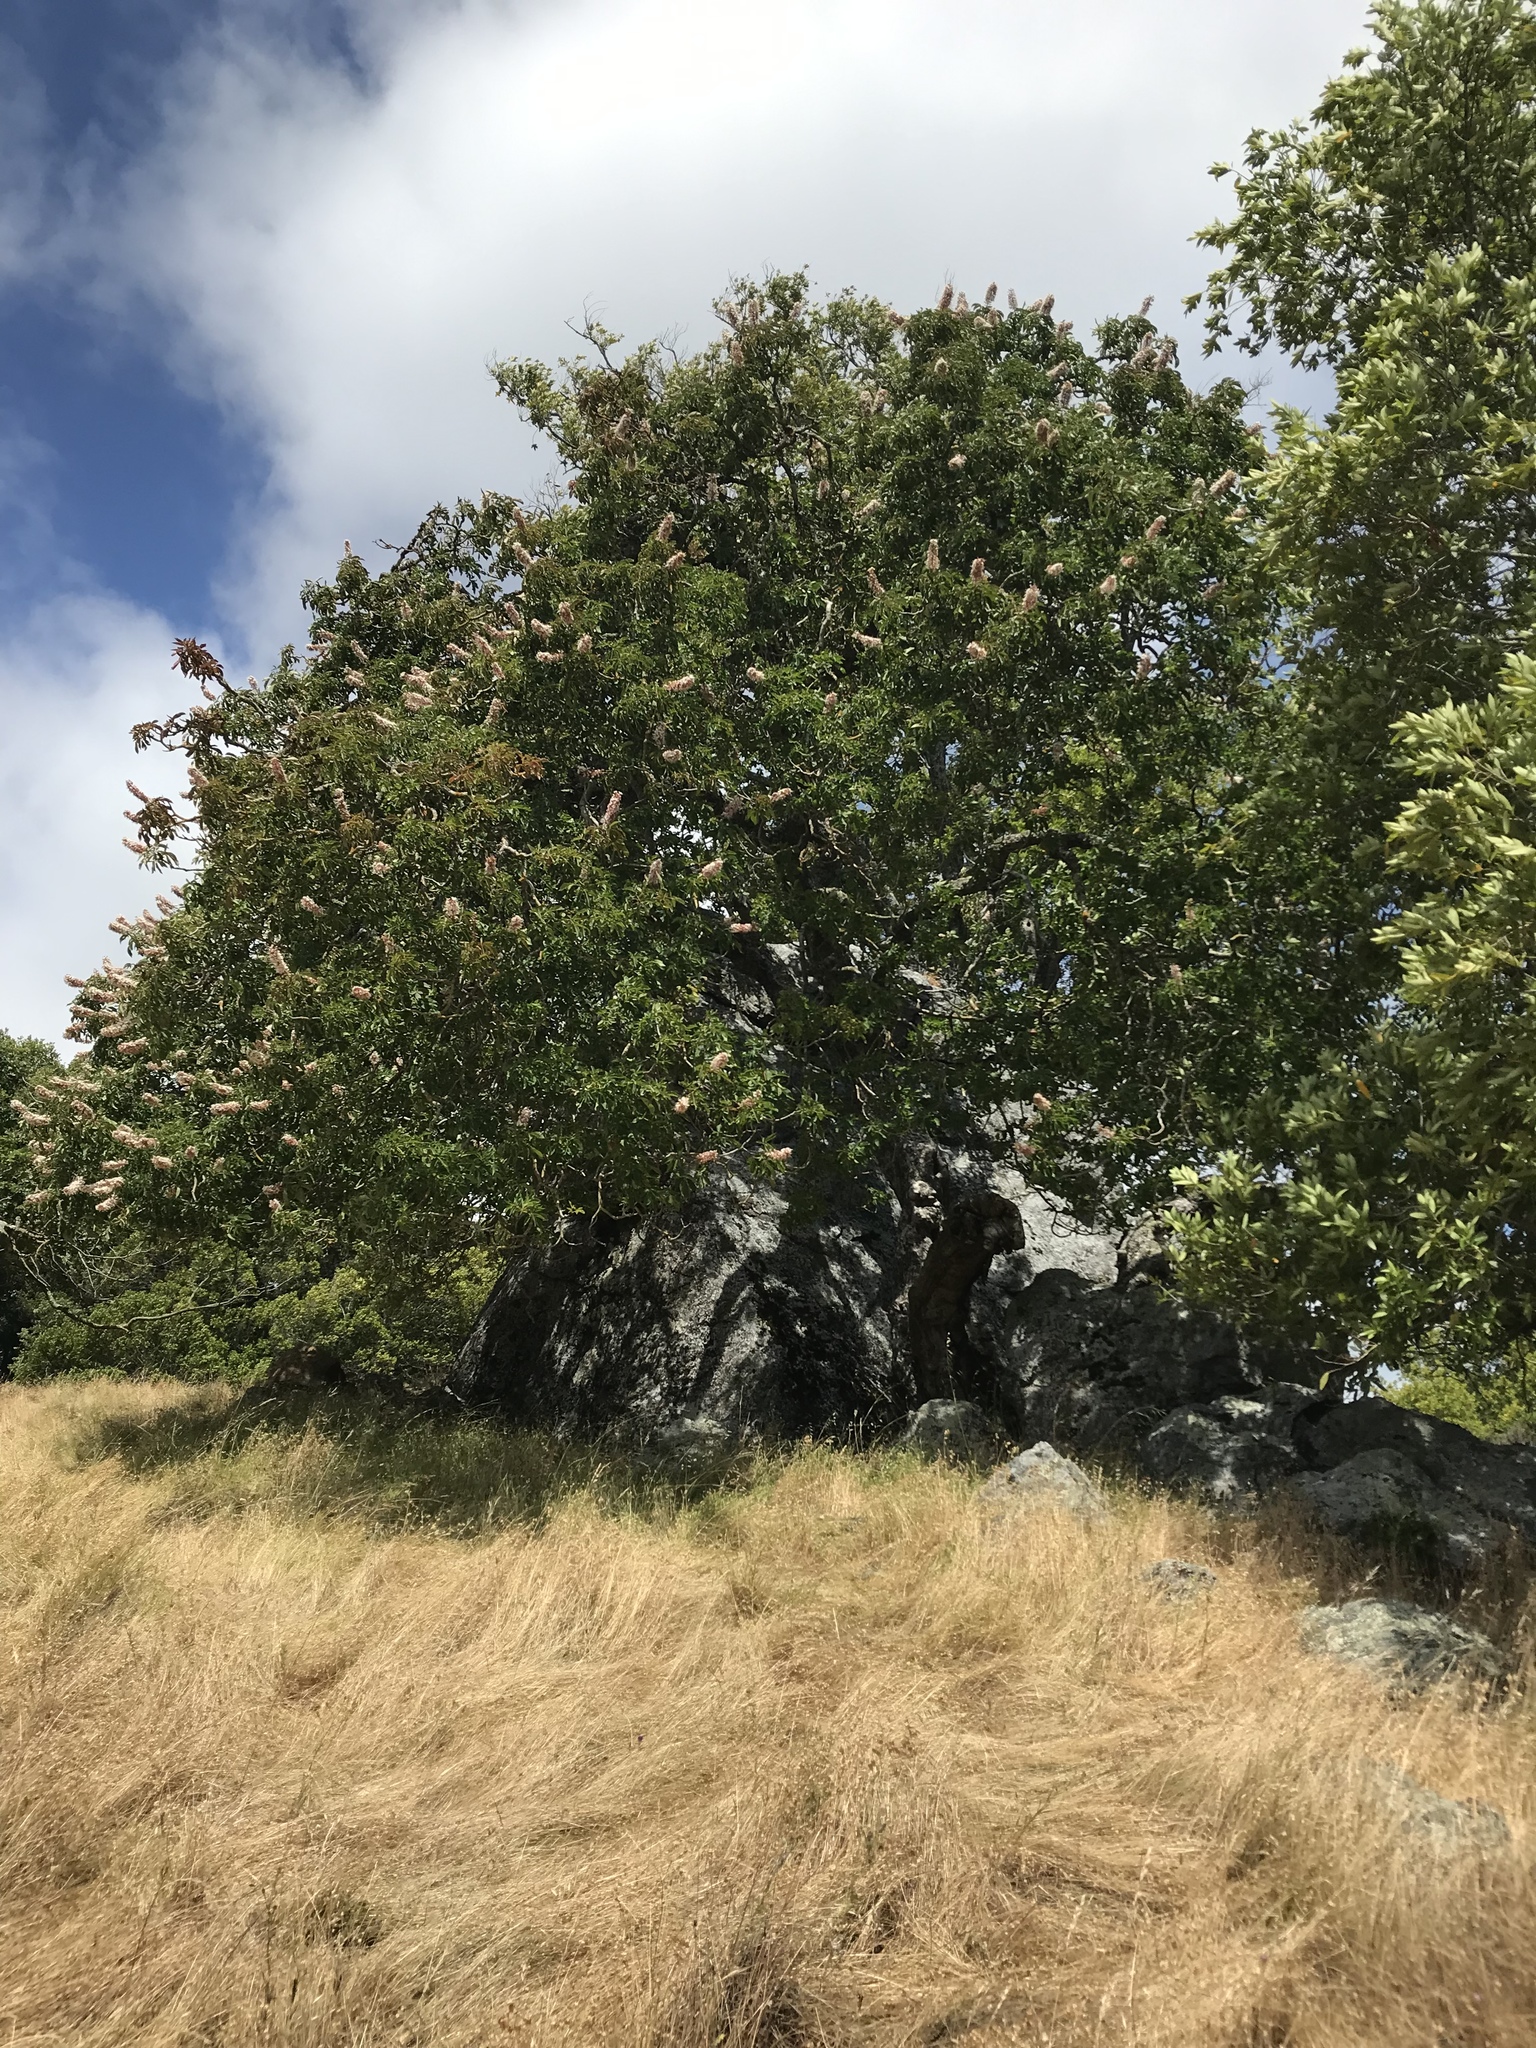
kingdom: Plantae
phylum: Tracheophyta
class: Magnoliopsida
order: Sapindales
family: Sapindaceae
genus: Aesculus
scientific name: Aesculus californica
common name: California buckeye
